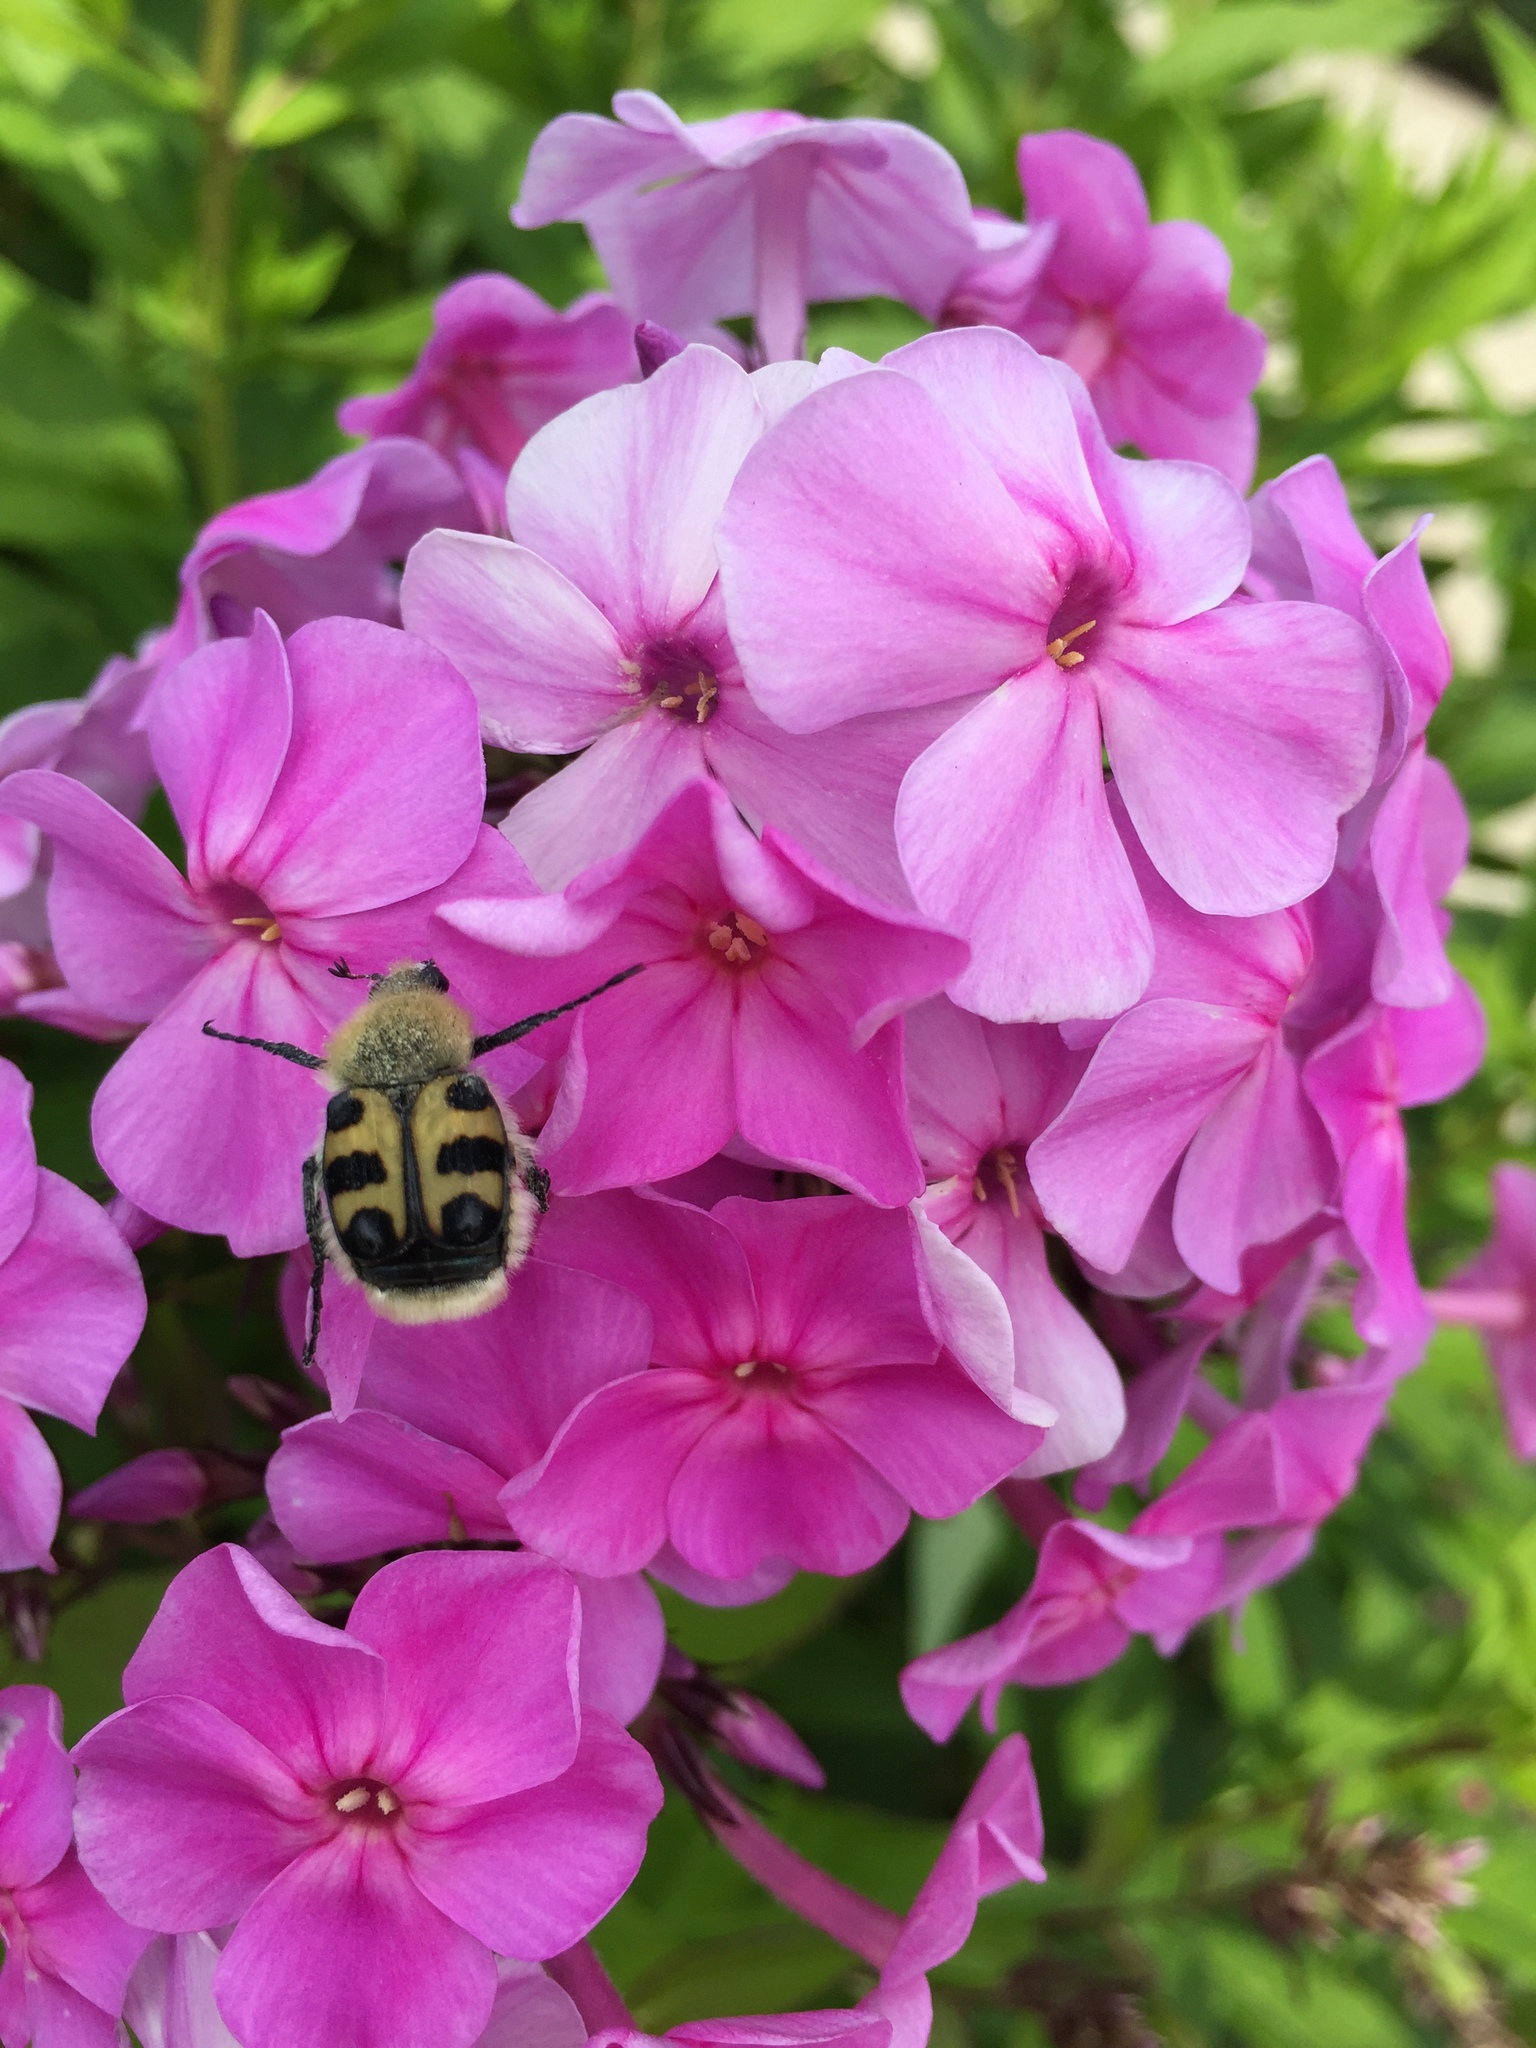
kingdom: Animalia
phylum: Arthropoda
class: Insecta
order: Coleoptera
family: Scarabaeidae
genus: Trichius
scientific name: Trichius gallicus
